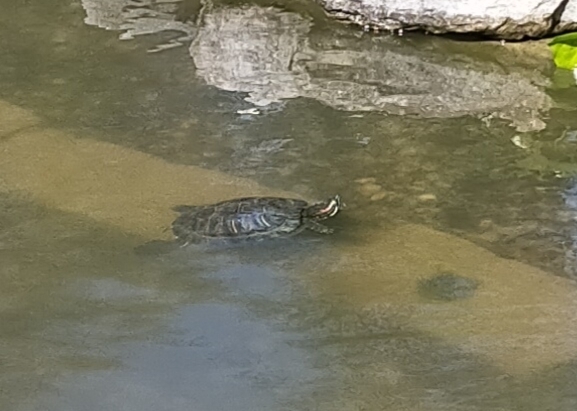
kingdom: Animalia
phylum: Chordata
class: Testudines
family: Emydidae
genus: Trachemys
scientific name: Trachemys scripta
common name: Slider
